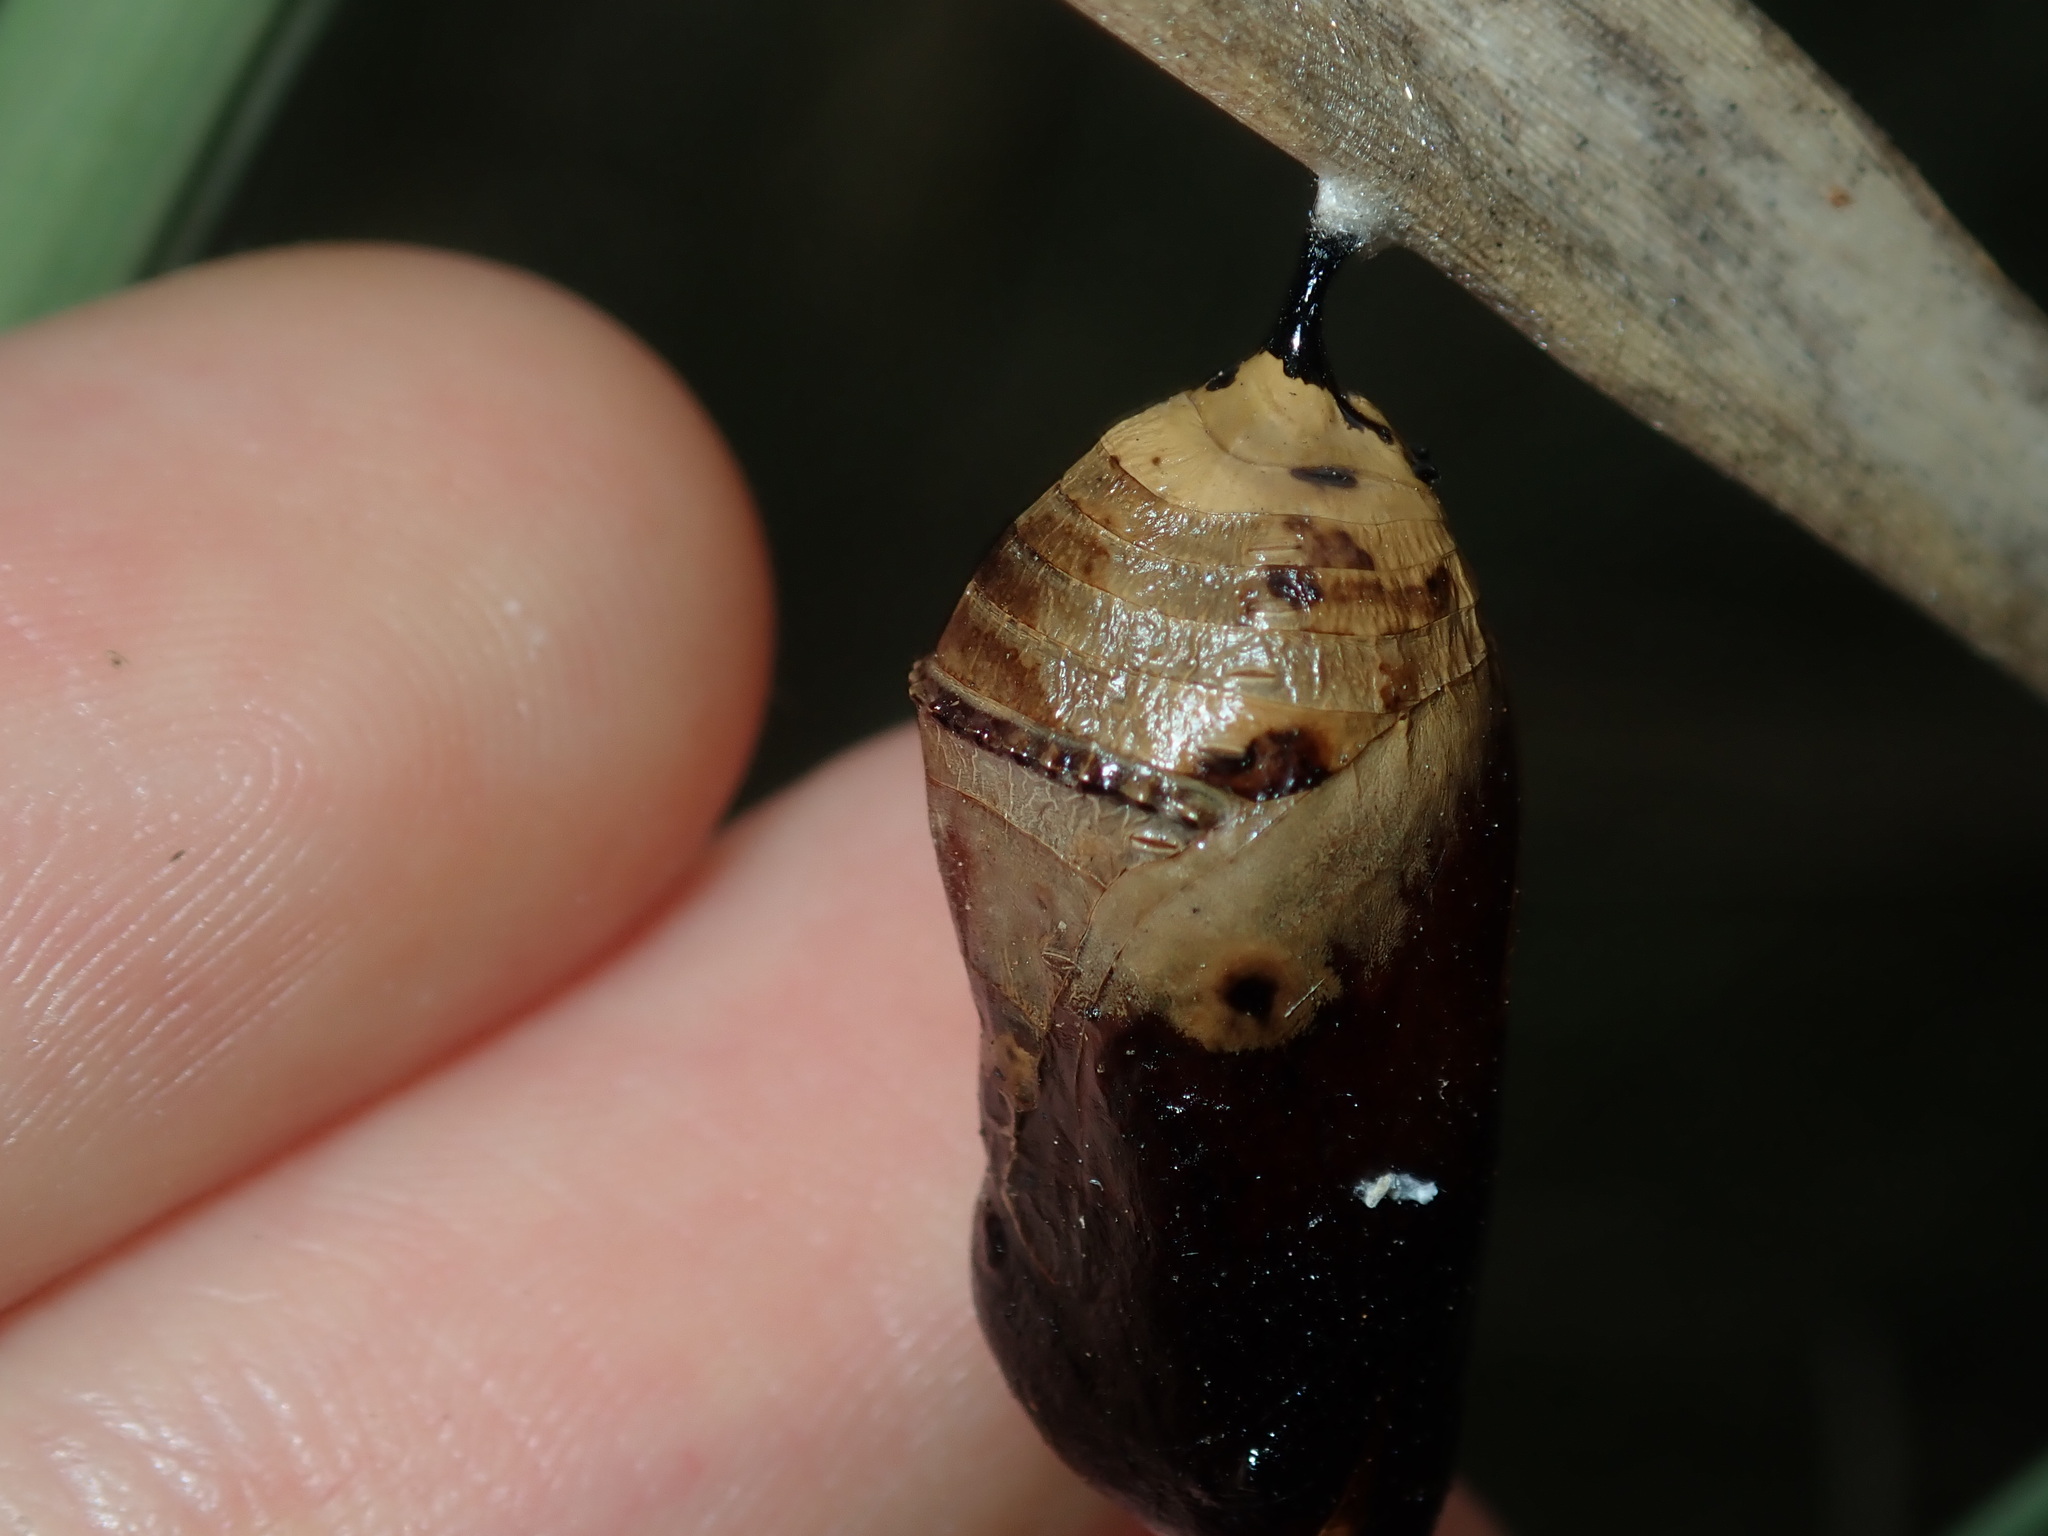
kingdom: Animalia
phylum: Arthropoda
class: Insecta
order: Lepidoptera
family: Nymphalidae
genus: Danaus
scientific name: Danaus plexippus
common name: Monarch
